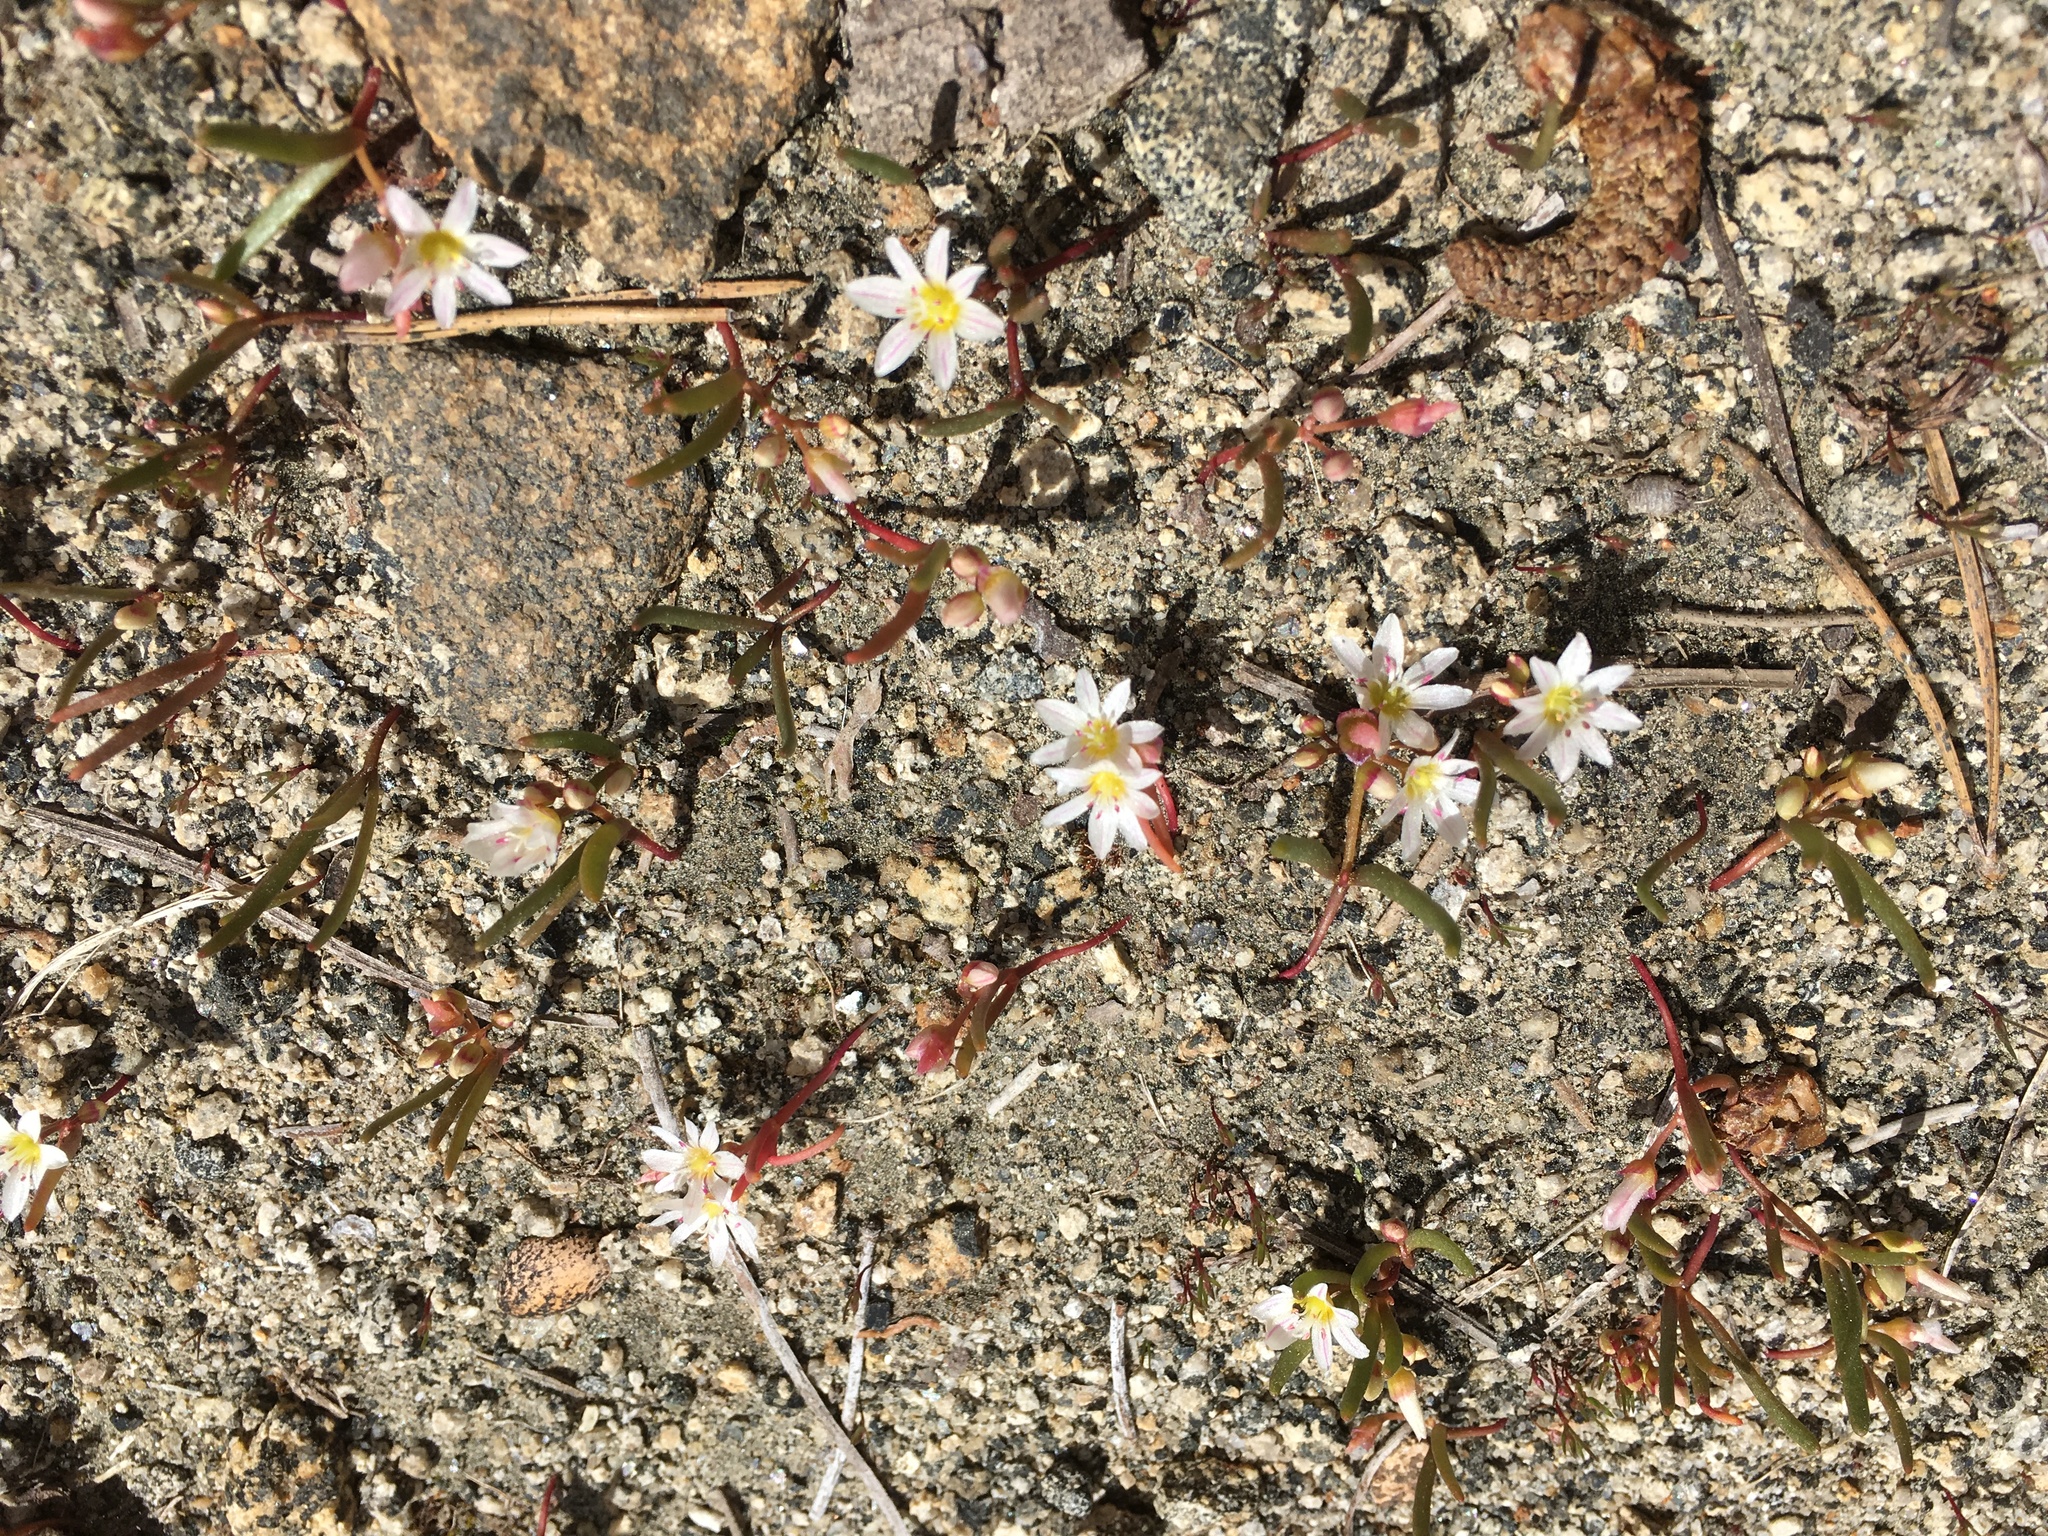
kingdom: Plantae
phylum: Tracheophyta
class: Magnoliopsida
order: Caryophyllales
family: Montiaceae
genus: Lewisia
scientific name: Lewisia triphylla
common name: Three-leaved bitterroot
